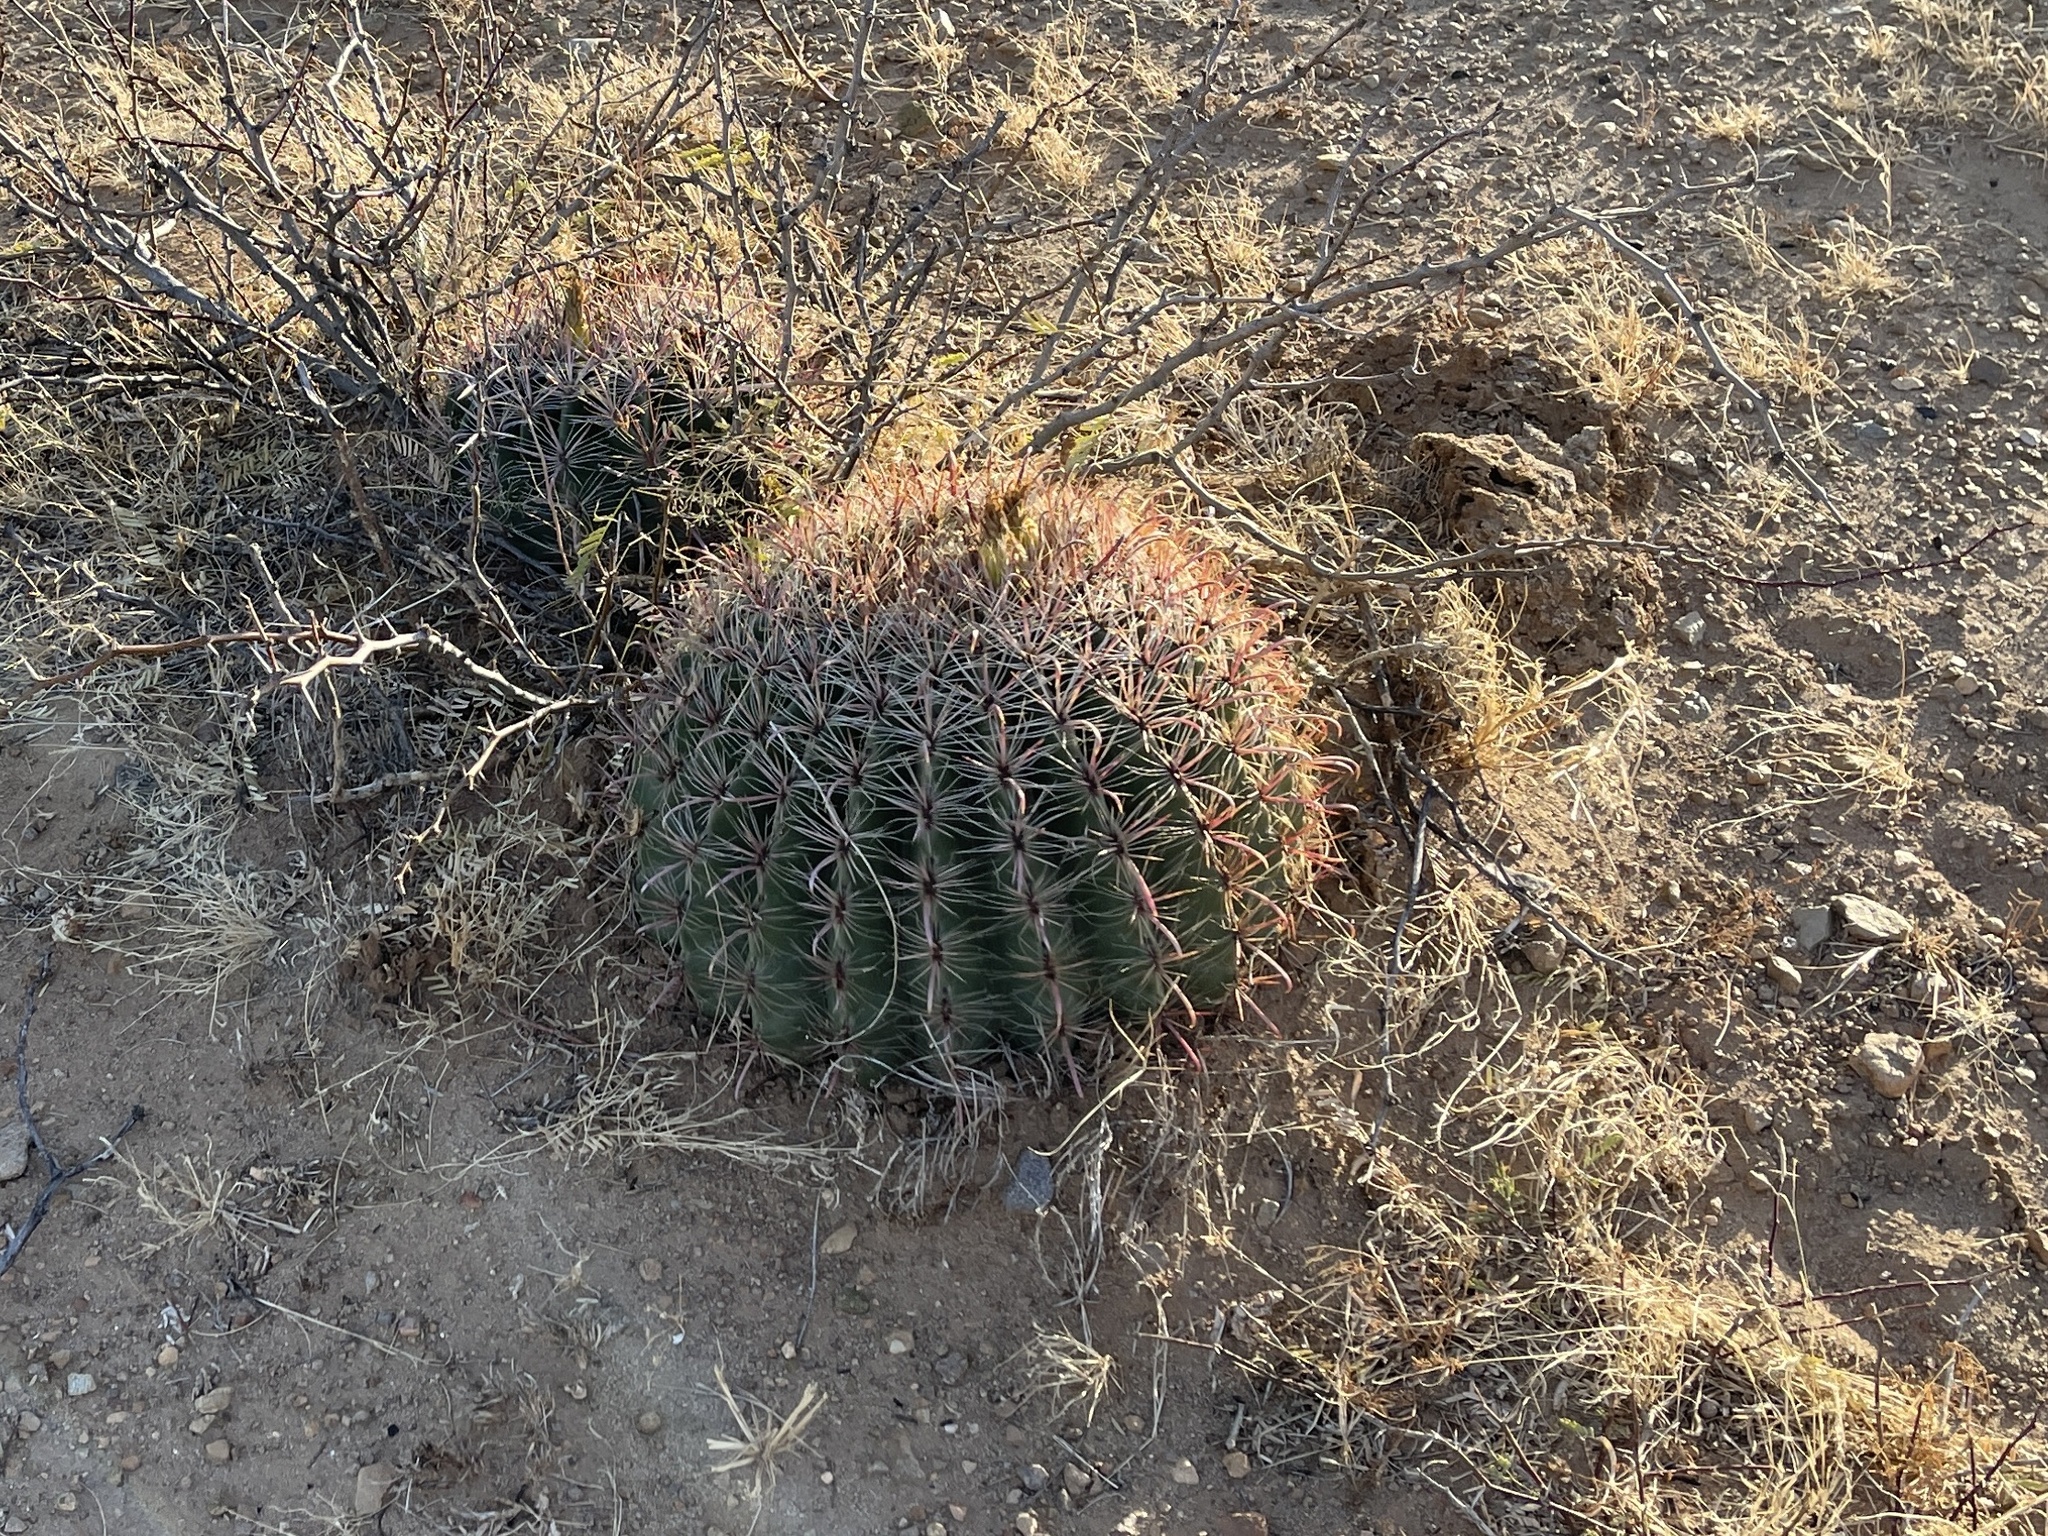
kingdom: Plantae
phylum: Tracheophyta
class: Magnoliopsida
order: Caryophyllales
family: Cactaceae
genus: Ferocactus
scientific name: Ferocactus wislizeni
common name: Candy barrel cactus
